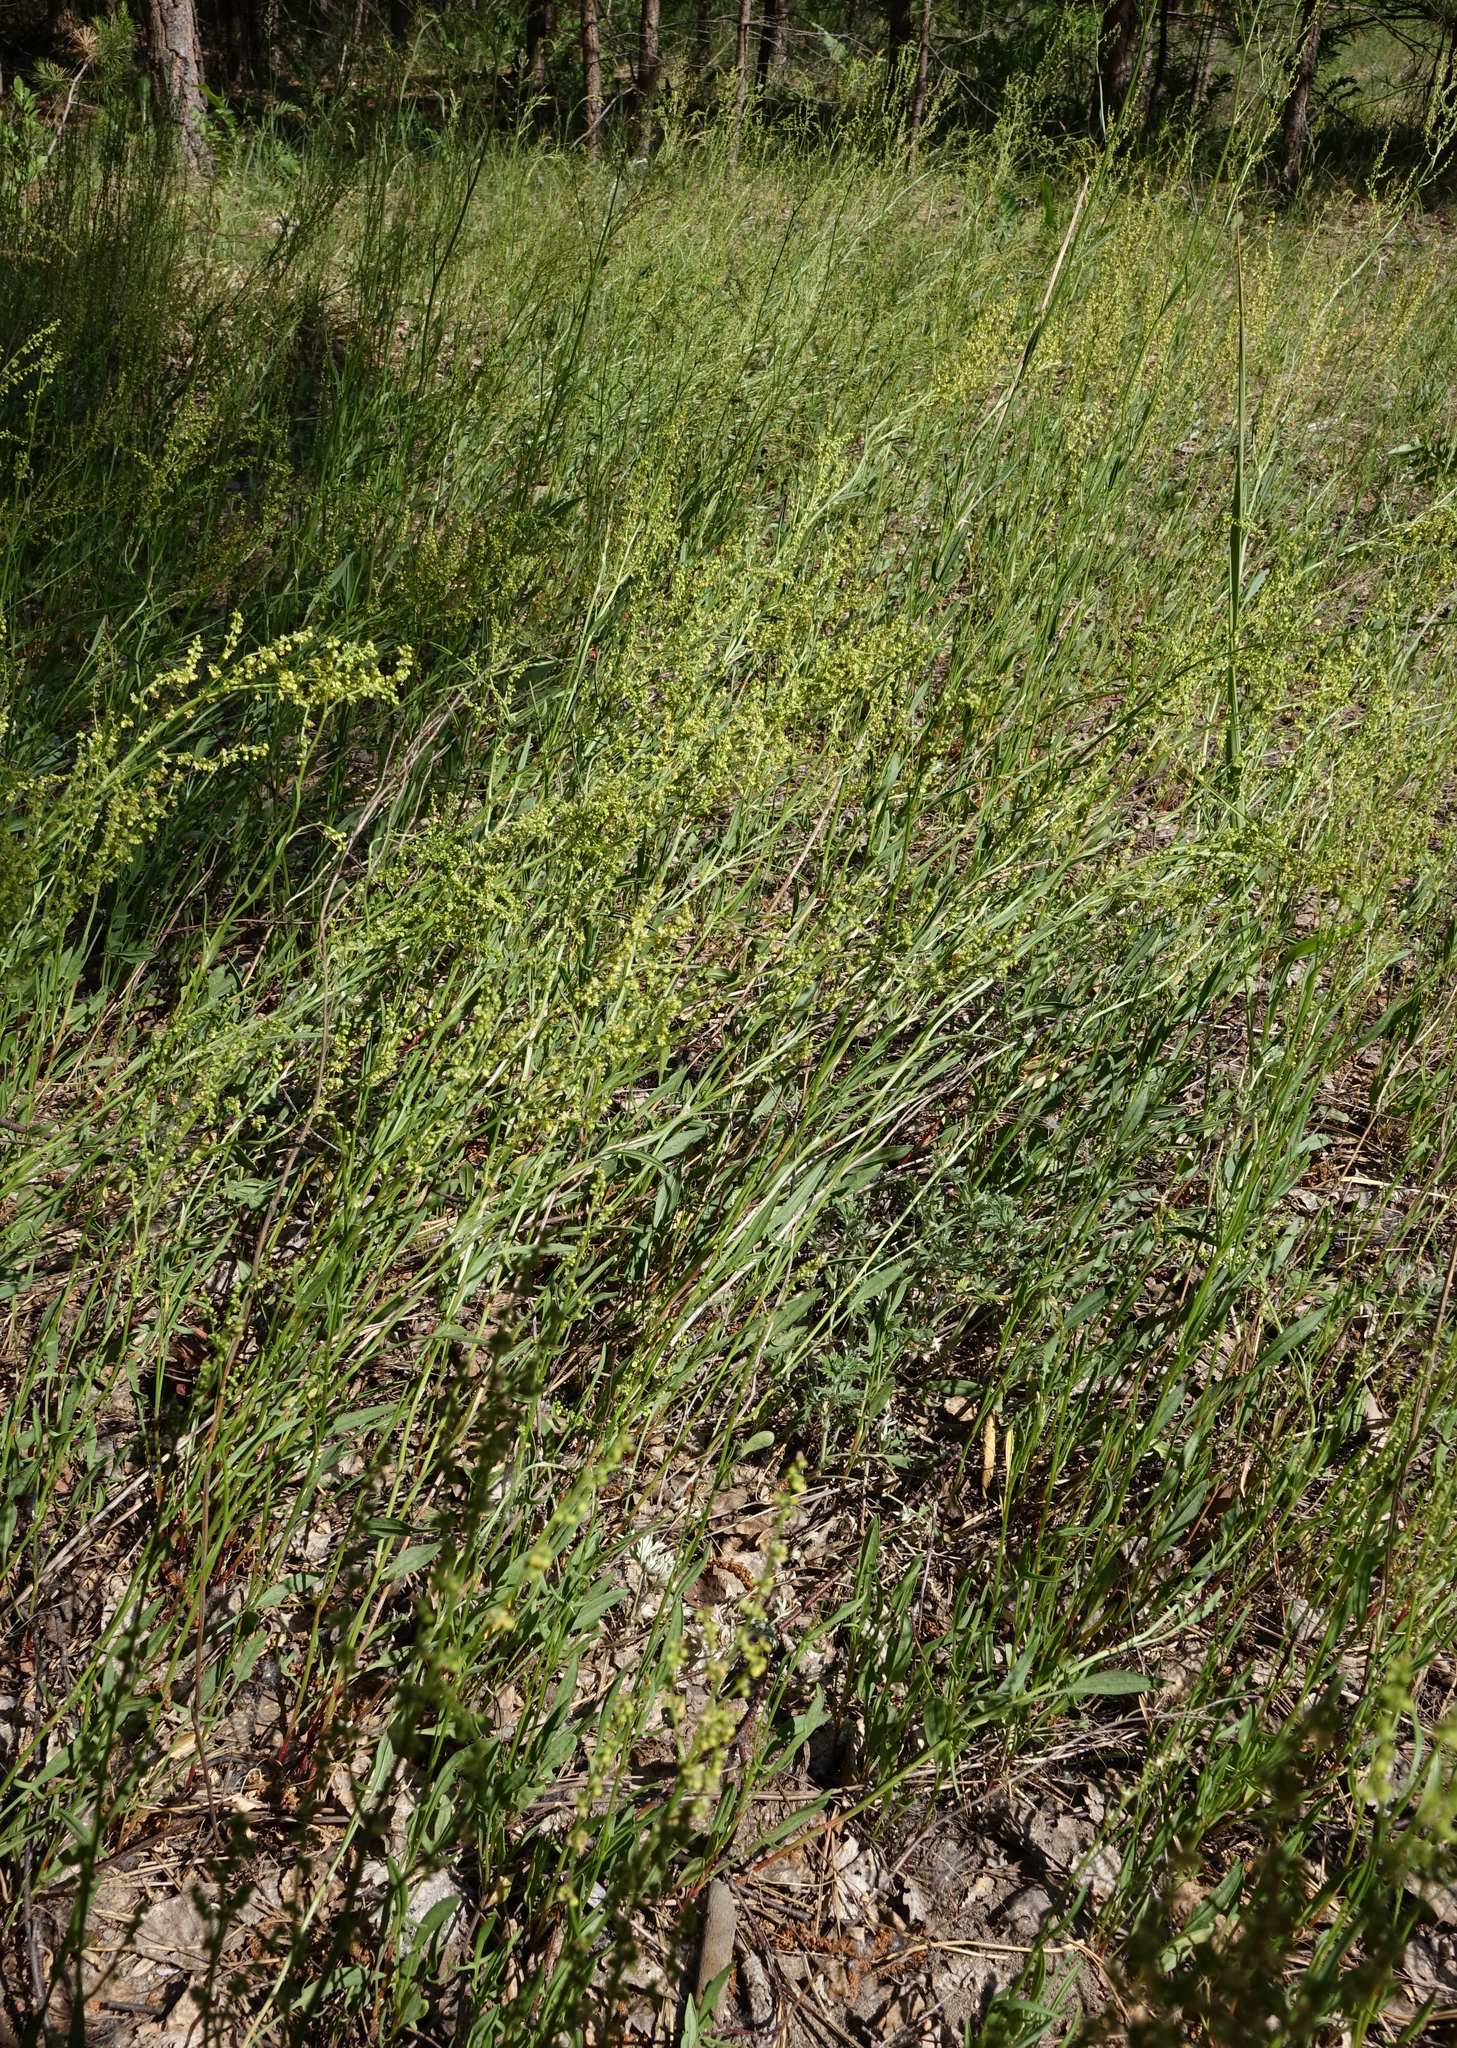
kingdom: Plantae
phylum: Tracheophyta
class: Magnoliopsida
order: Caryophyllales
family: Polygonaceae
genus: Rumex
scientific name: Rumex acetosella
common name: Common sheep sorrel
